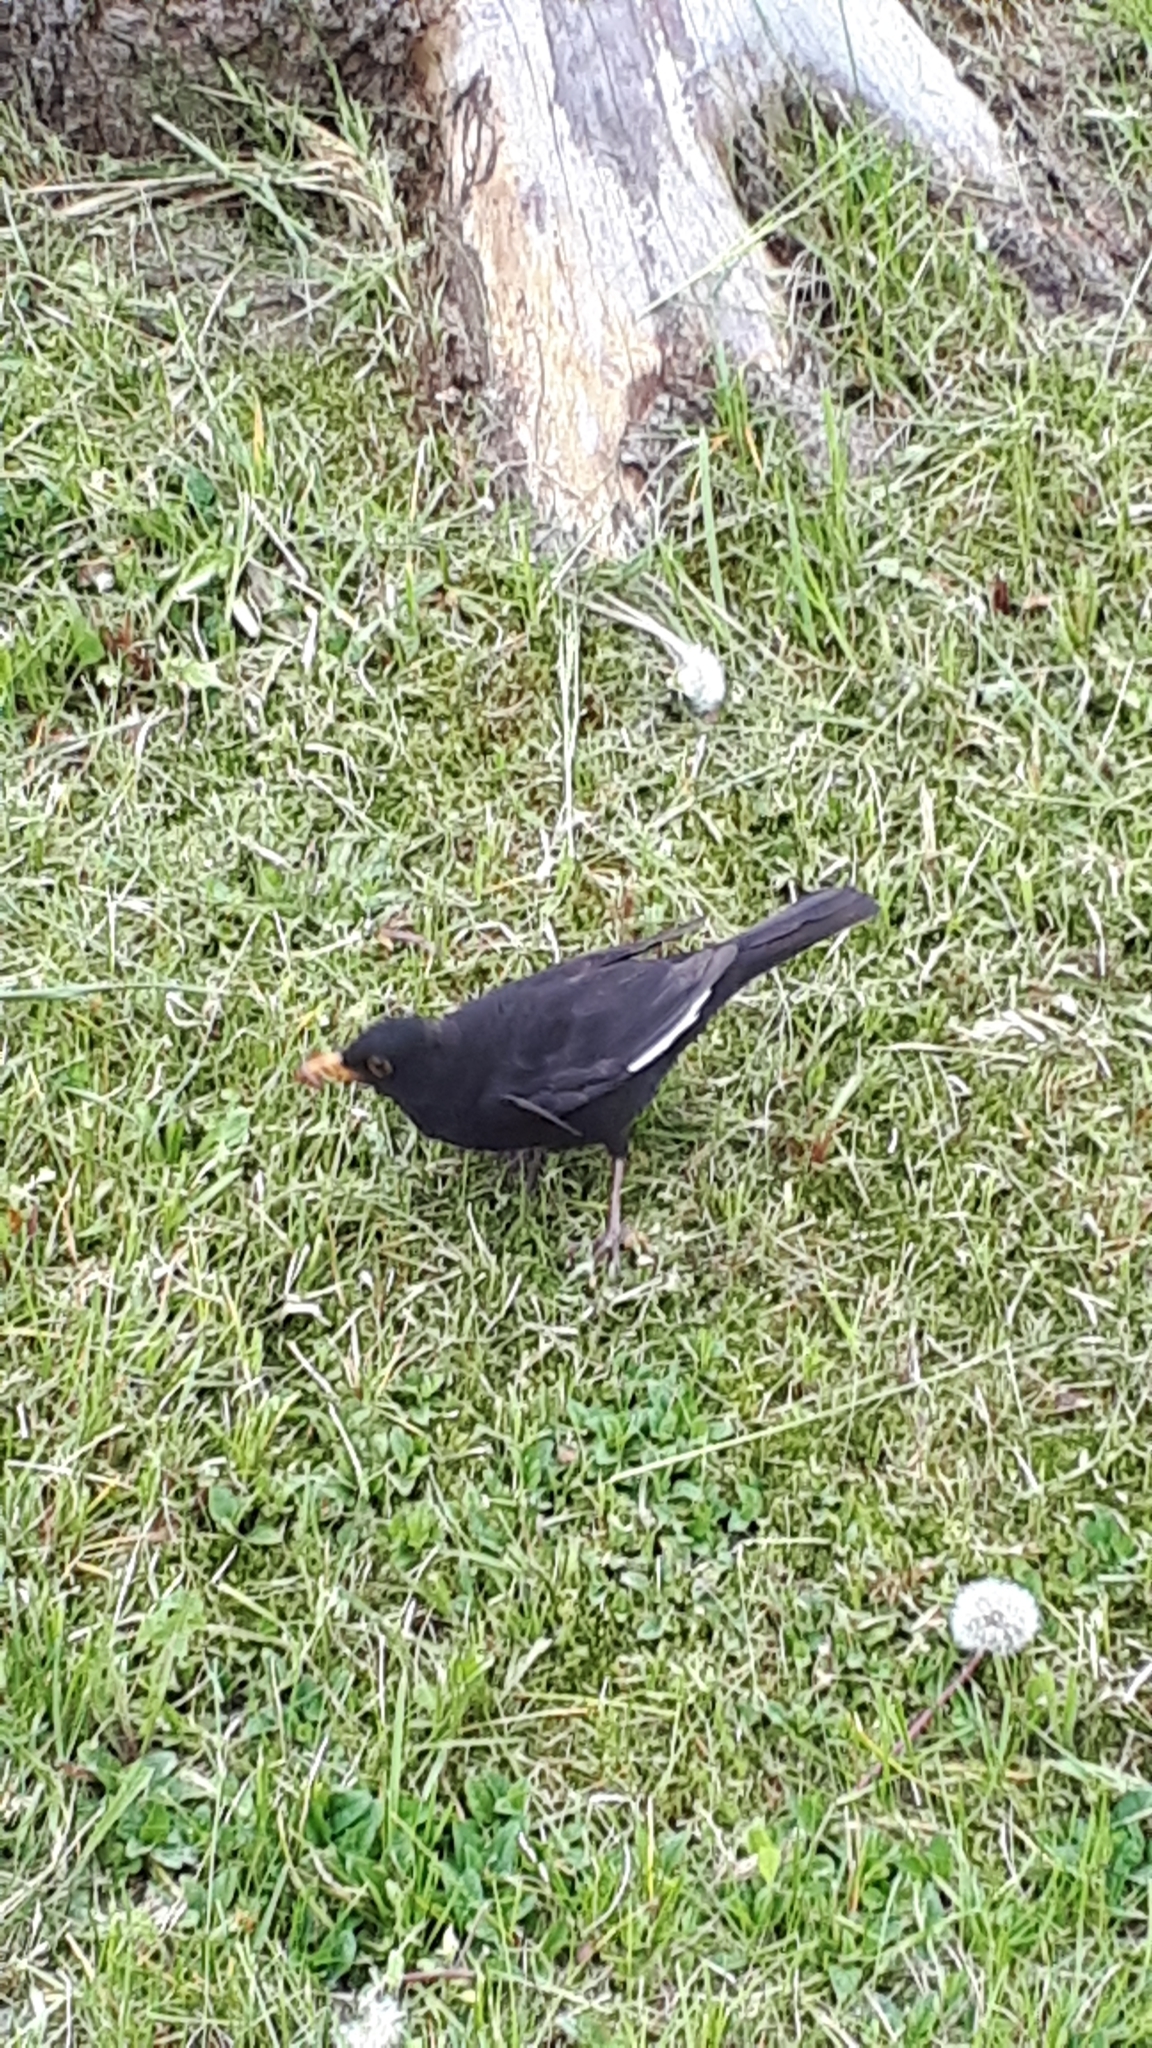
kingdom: Animalia
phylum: Chordata
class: Aves
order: Passeriformes
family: Turdidae
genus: Turdus
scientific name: Turdus merula
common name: Common blackbird
